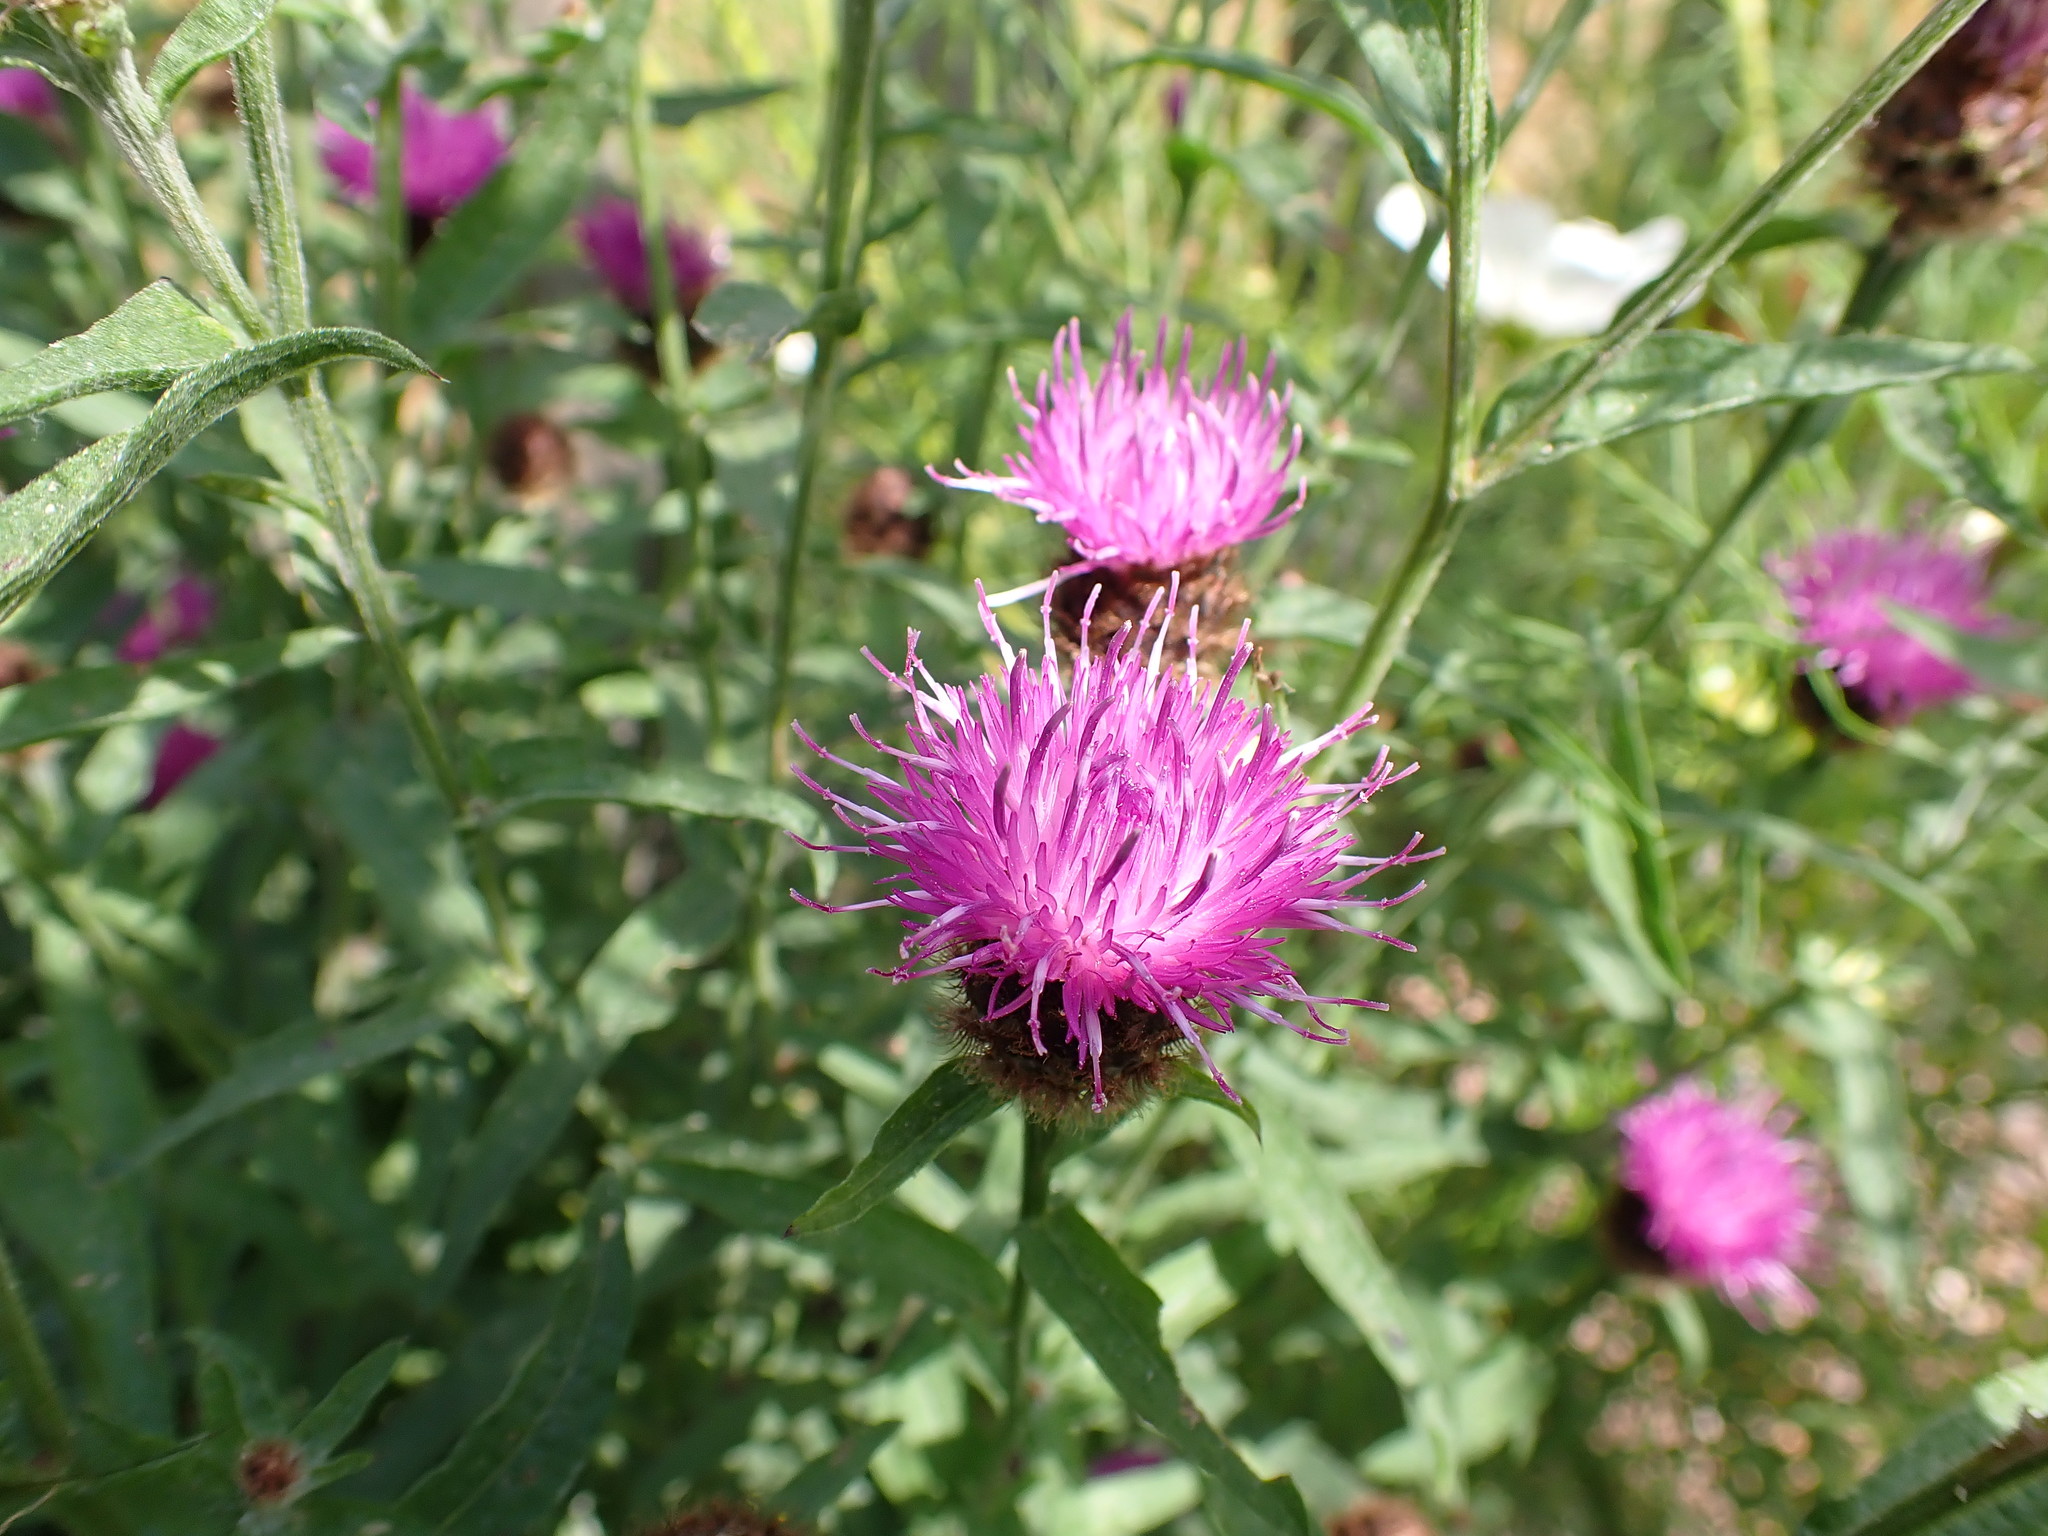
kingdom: Plantae
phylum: Tracheophyta
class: Magnoliopsida
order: Asterales
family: Asteraceae
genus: Centaurea
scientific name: Centaurea nigra
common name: Lesser knapweed
